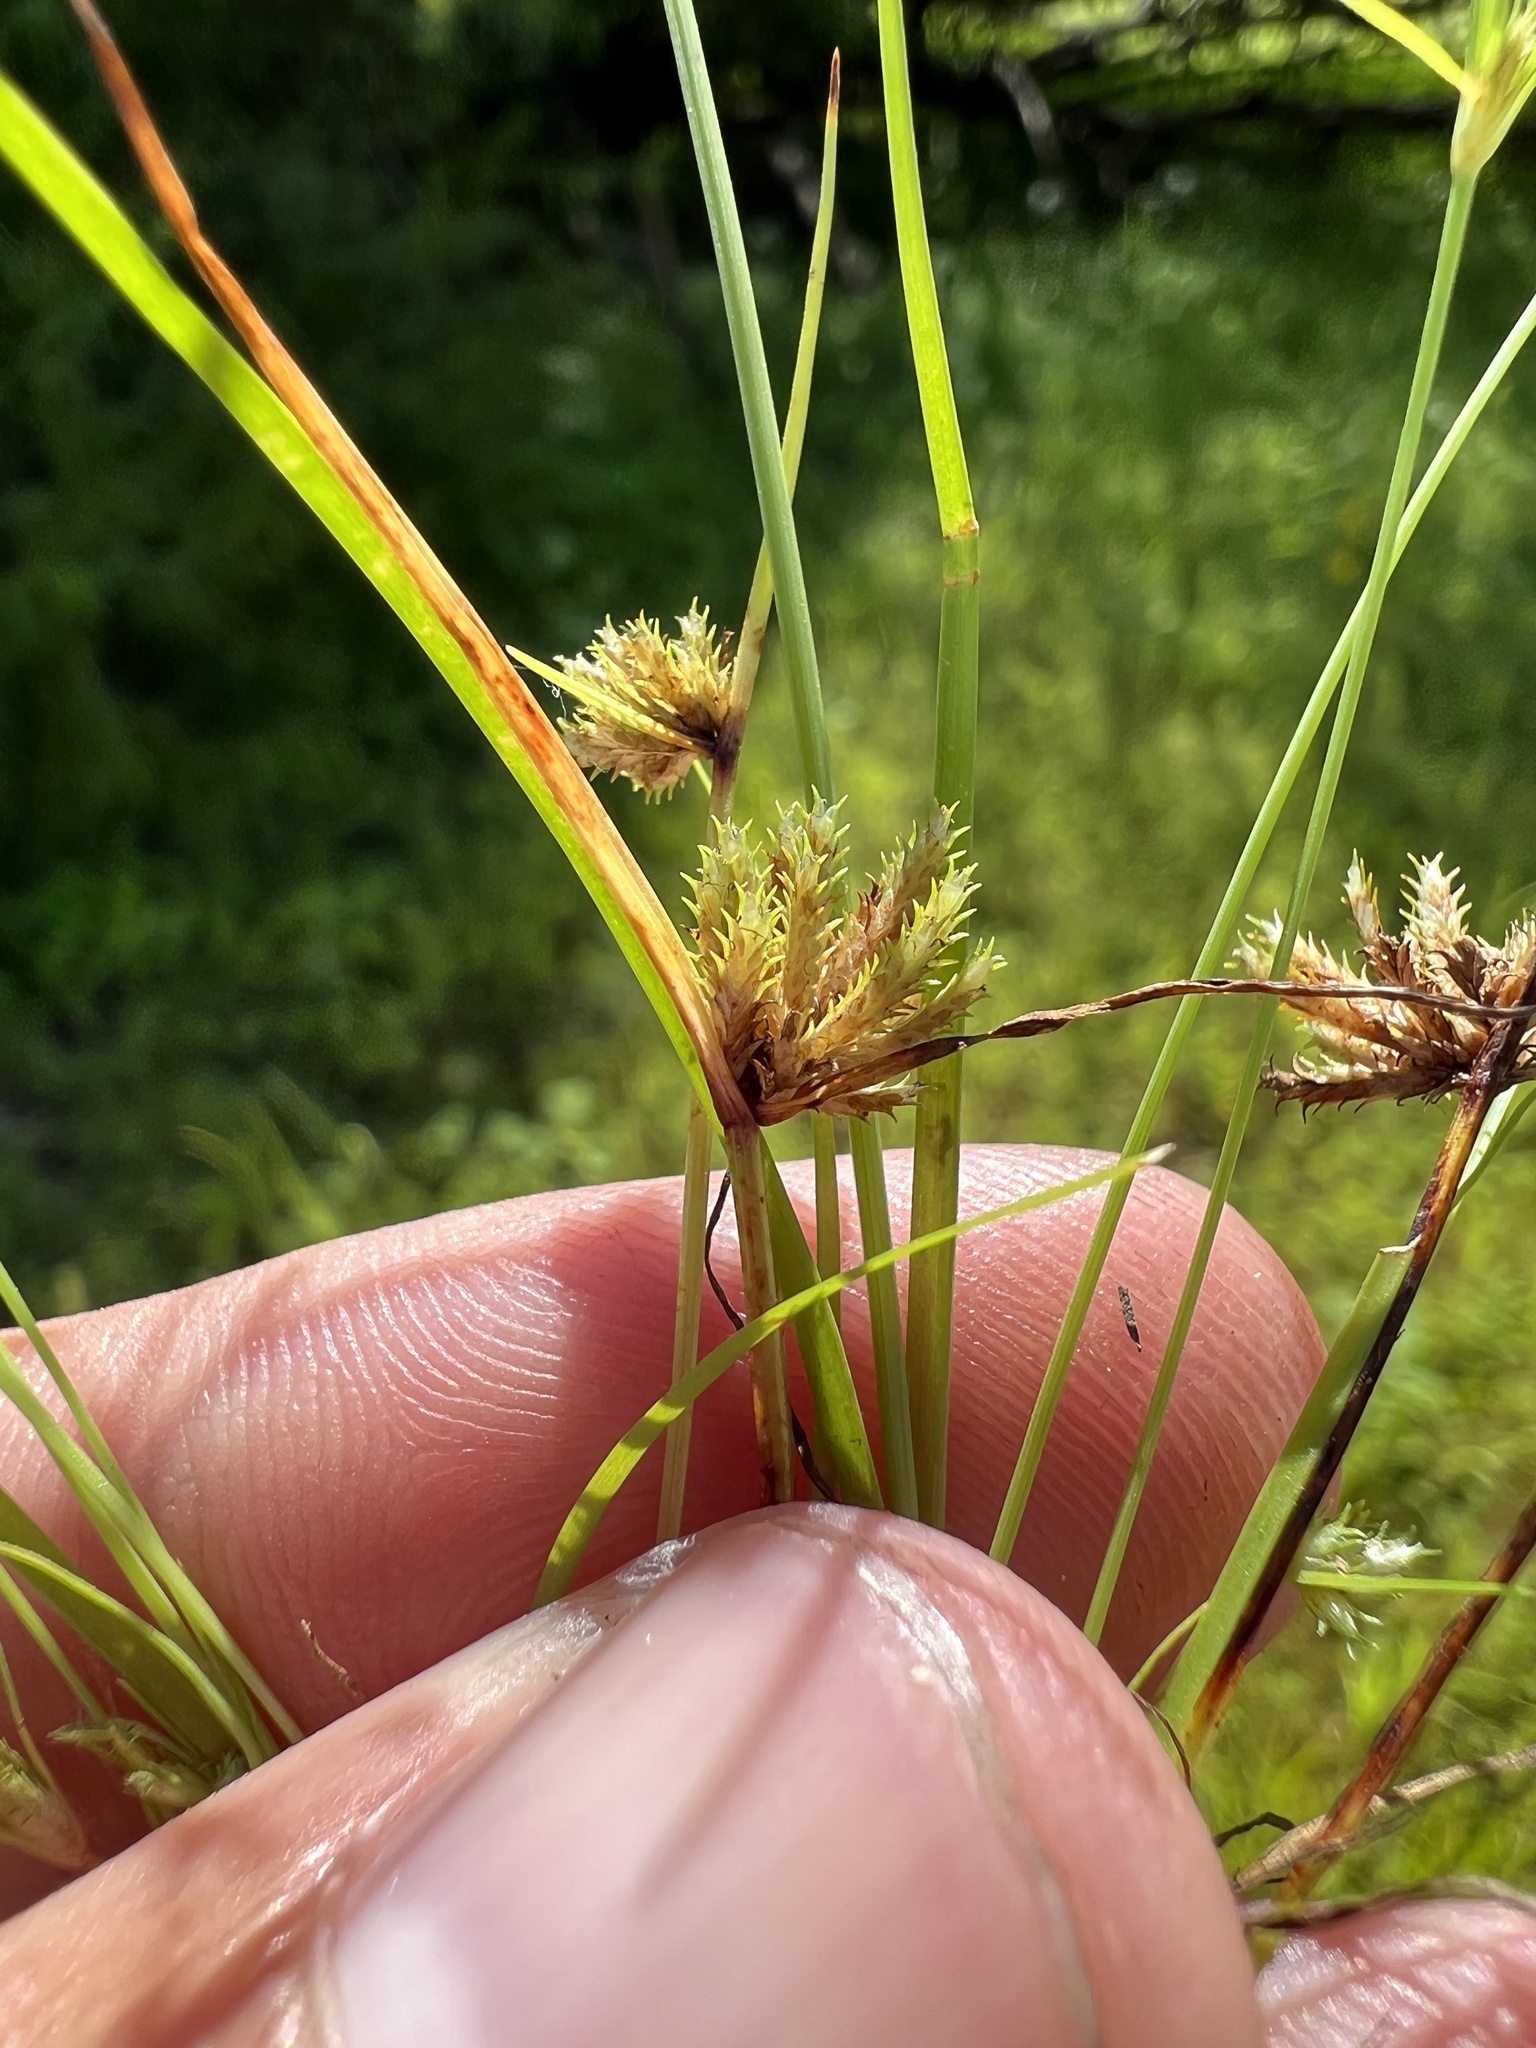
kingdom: Plantae
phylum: Tracheophyta
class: Liliopsida
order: Poales
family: Cyperaceae
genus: Cyperus
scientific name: Cyperus squarrosus
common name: Awned cyperus
